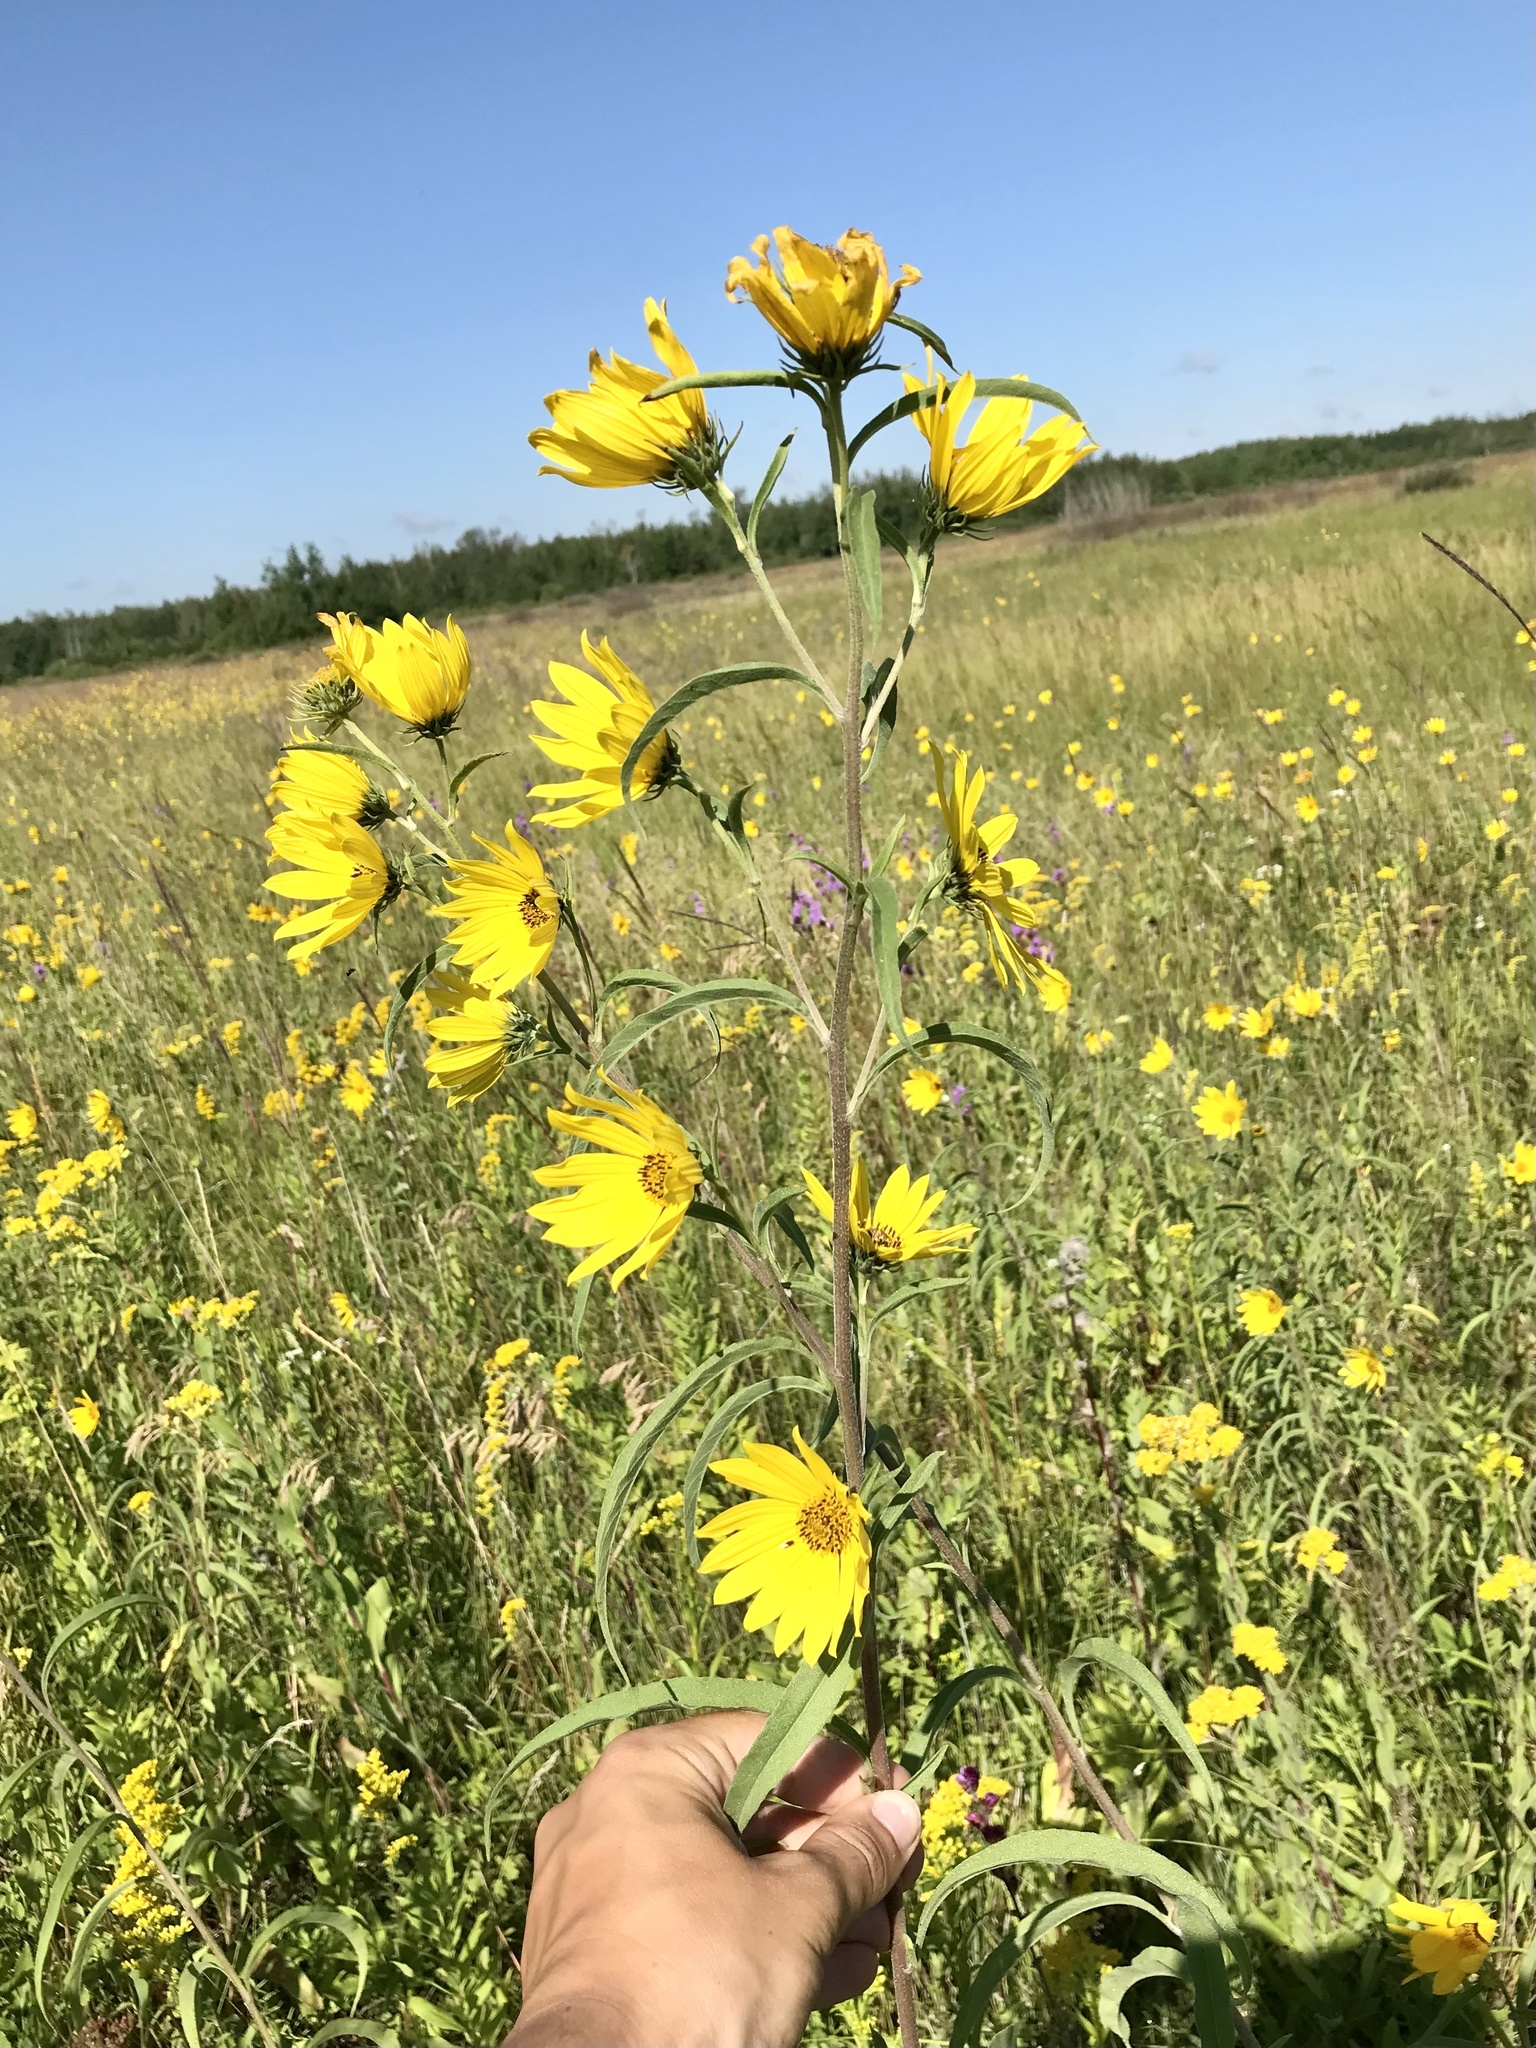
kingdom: Plantae
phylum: Tracheophyta
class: Magnoliopsida
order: Asterales
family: Asteraceae
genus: Helianthus
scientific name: Helianthus maximiliani
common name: Maximilian's sunflower
